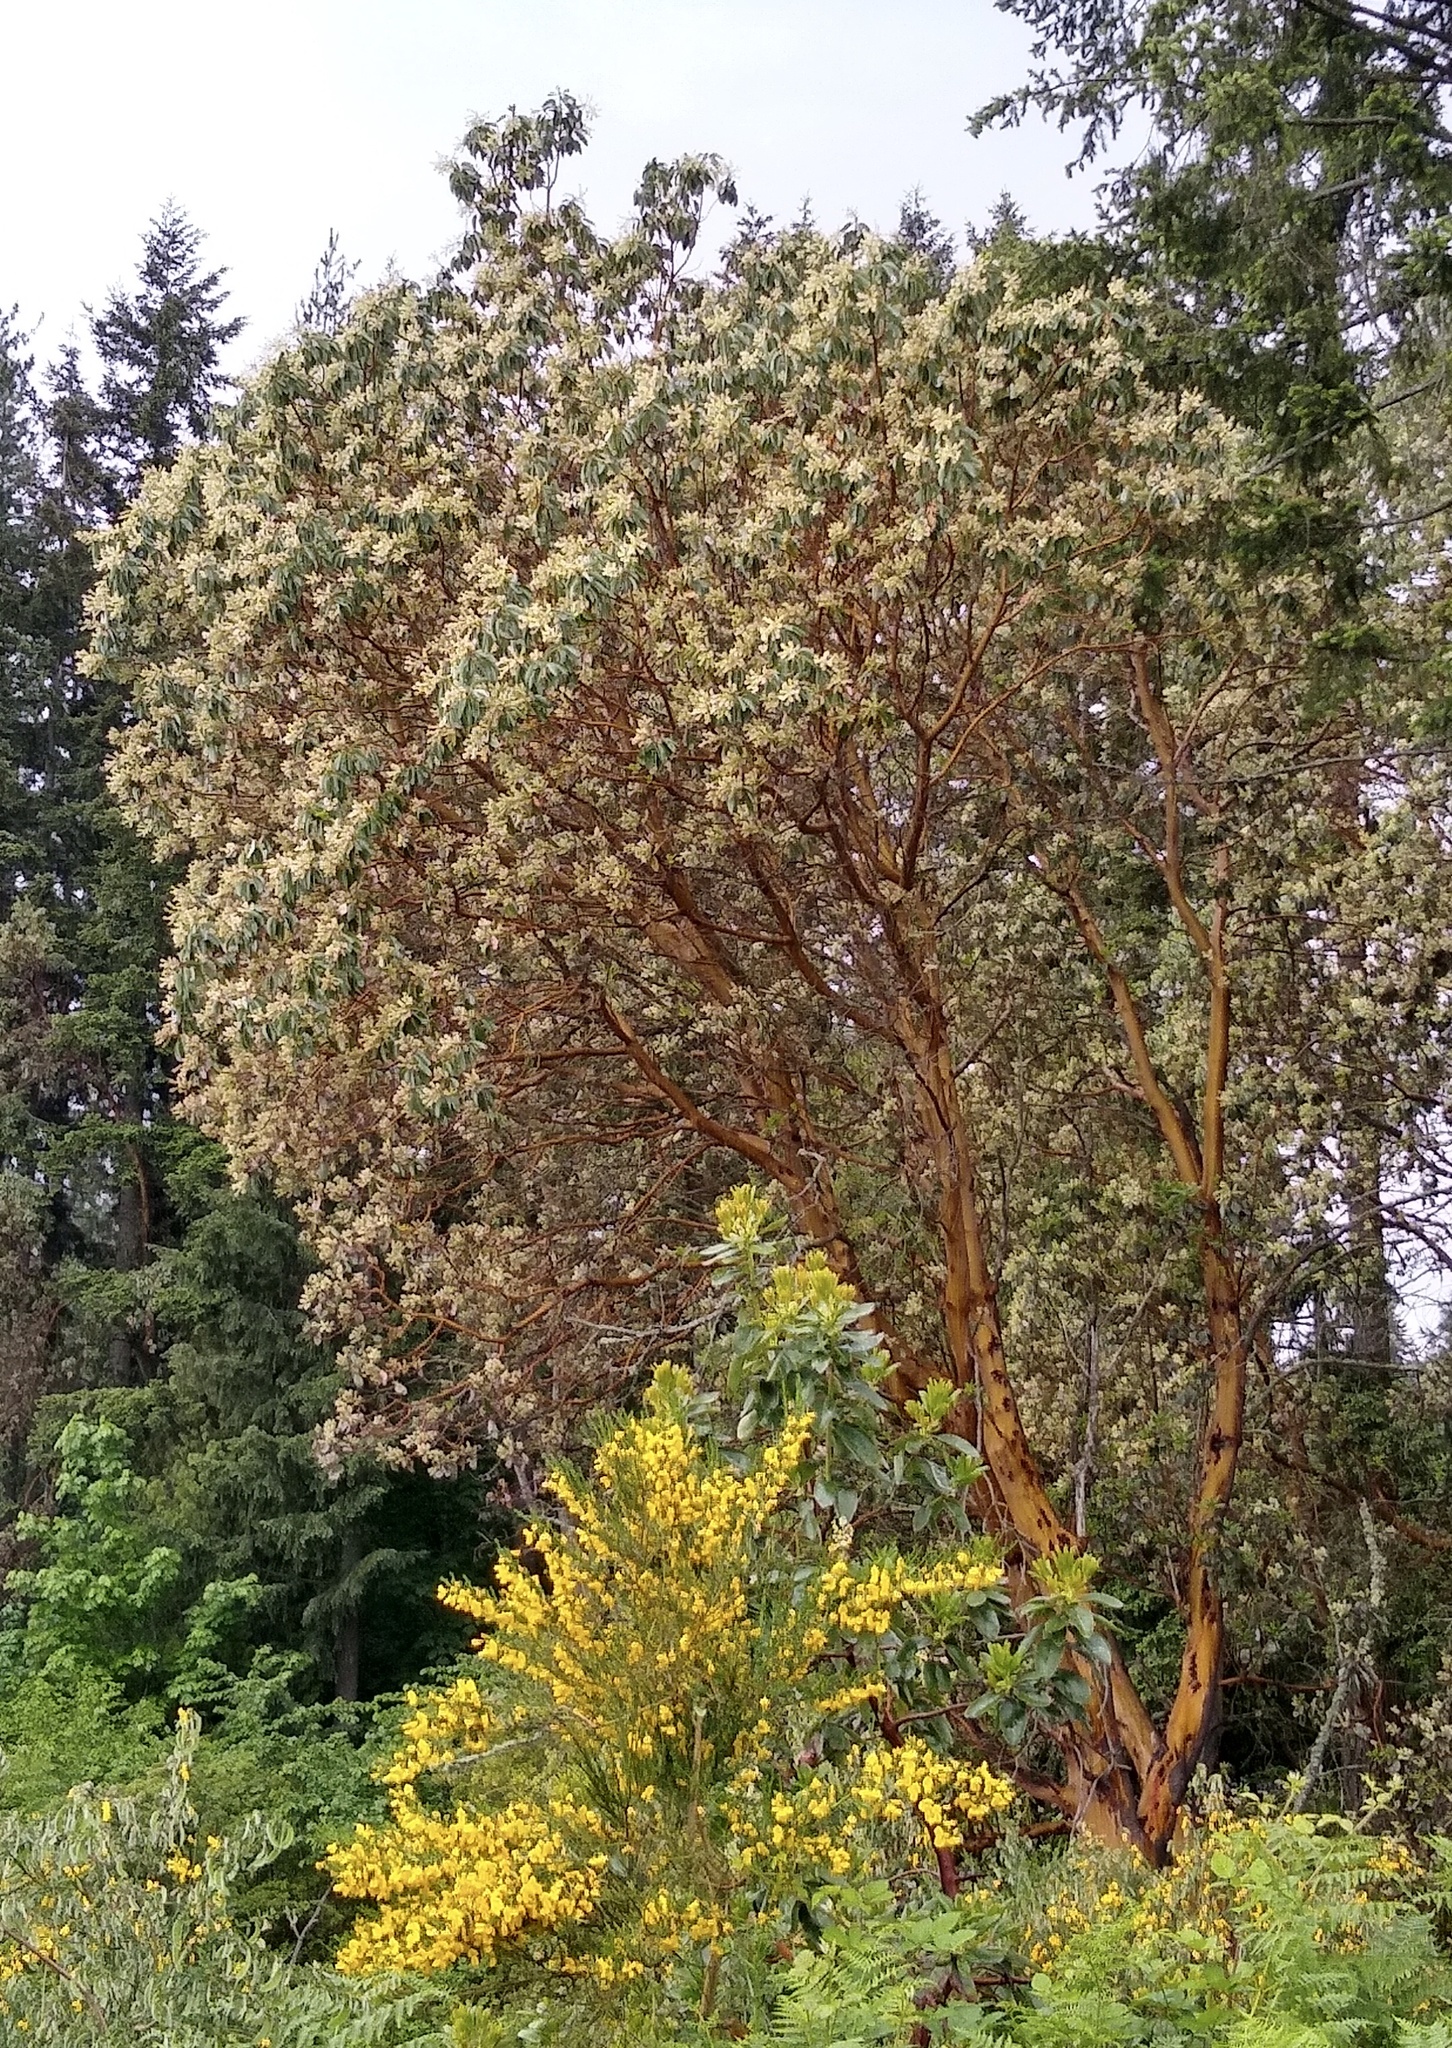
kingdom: Plantae
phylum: Tracheophyta
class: Magnoliopsida
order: Ericales
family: Ericaceae
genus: Arbutus
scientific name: Arbutus menziesii
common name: Pacific madrone
